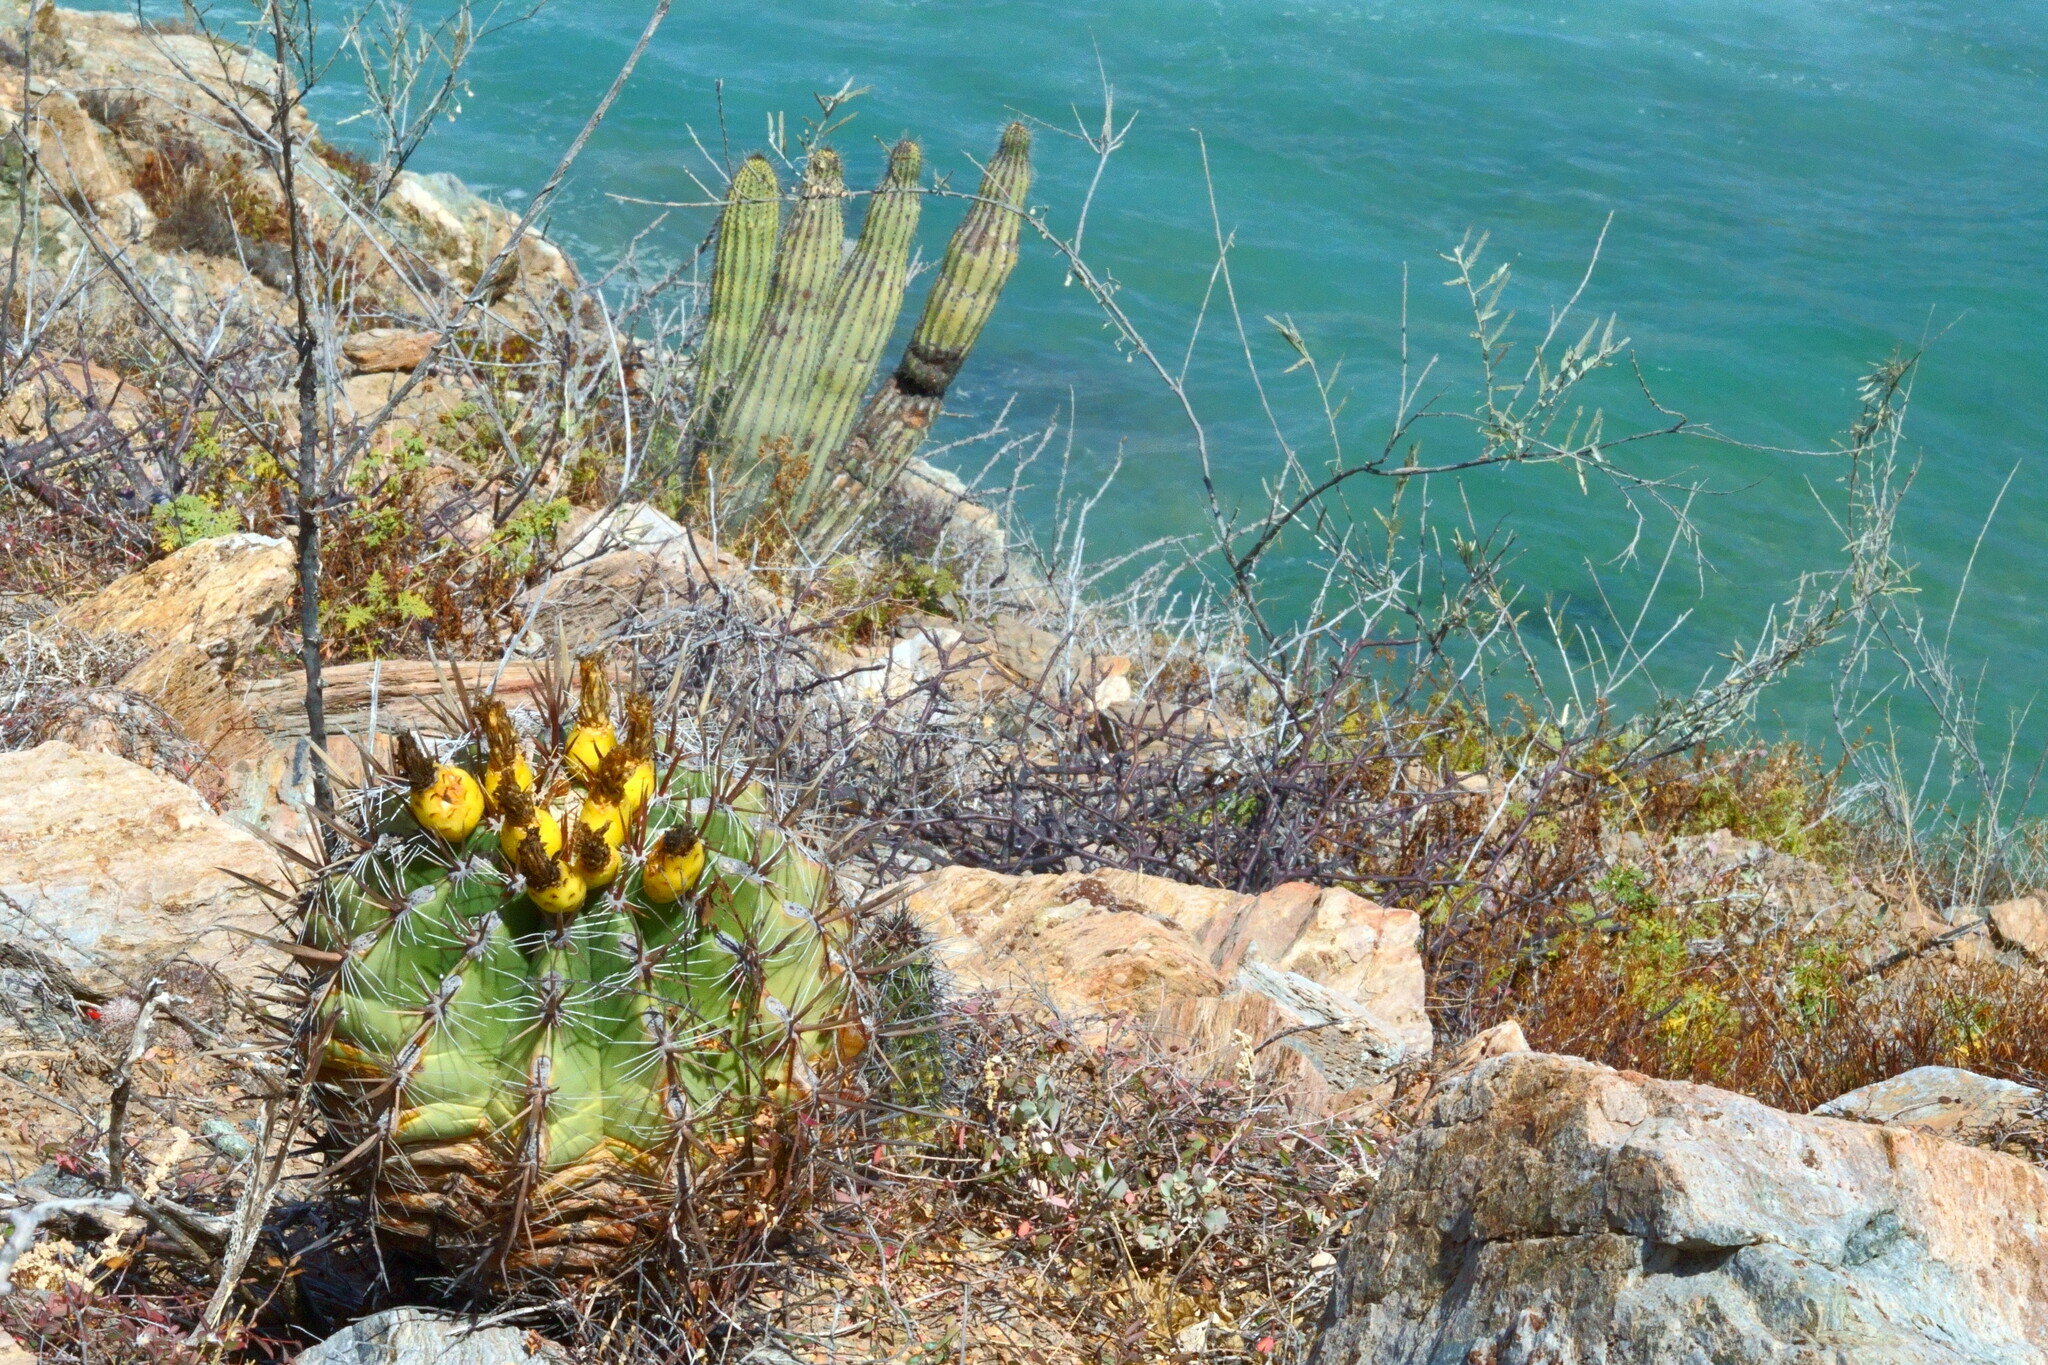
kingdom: Plantae
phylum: Tracheophyta
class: Magnoliopsida
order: Caryophyllales
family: Cactaceae
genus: Ferocactus
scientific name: Ferocactus townsendianus
